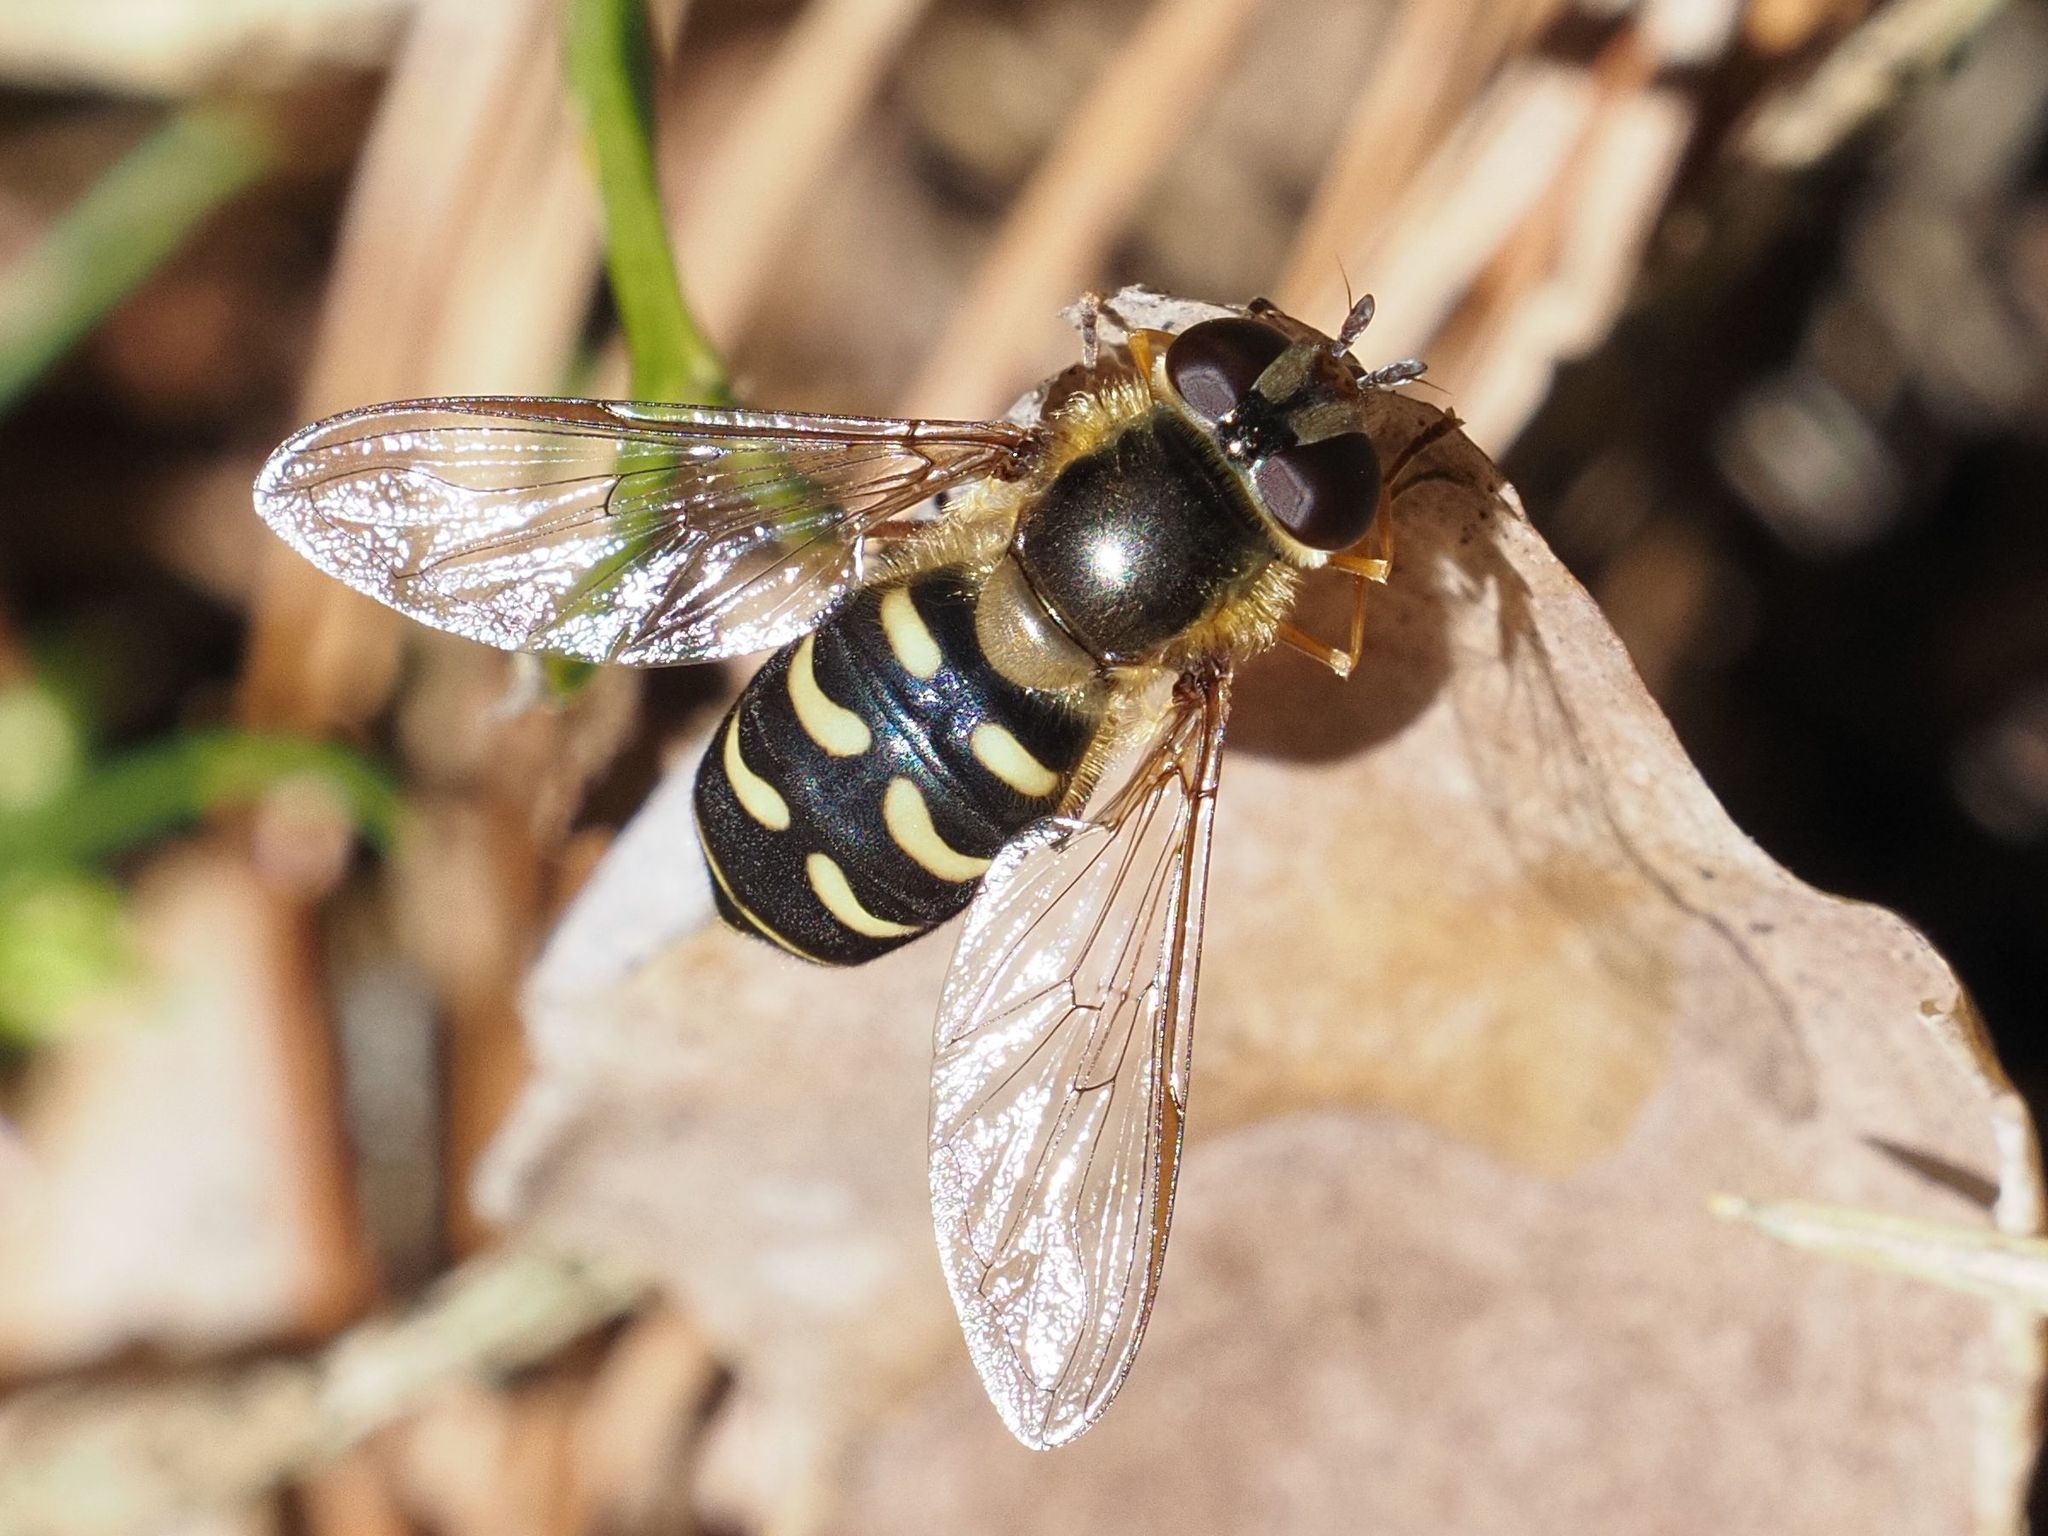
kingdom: Animalia
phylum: Arthropoda
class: Insecta
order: Diptera
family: Syrphidae
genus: Lapposyrphus
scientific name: Lapposyrphus lapponicus
